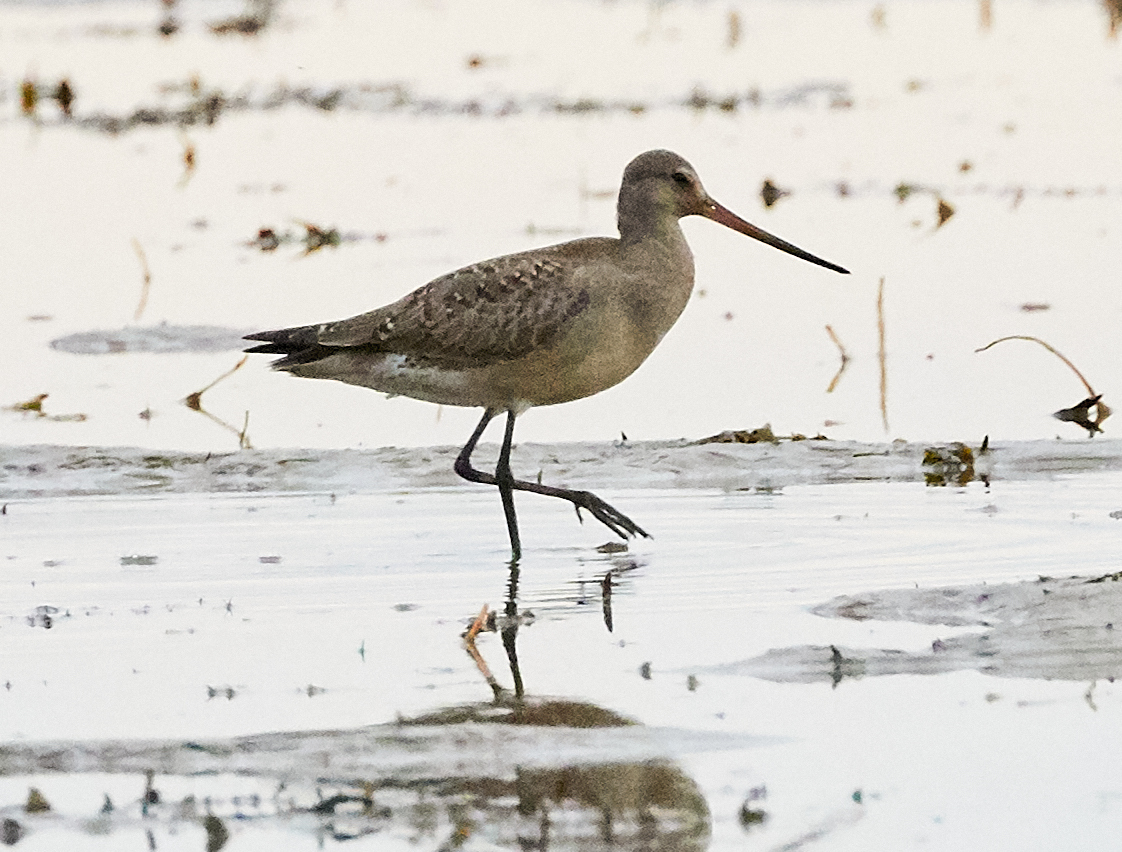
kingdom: Animalia
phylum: Chordata
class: Aves
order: Charadriiformes
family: Scolopacidae
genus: Limosa
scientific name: Limosa haemastica
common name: Hudsonian godwit
